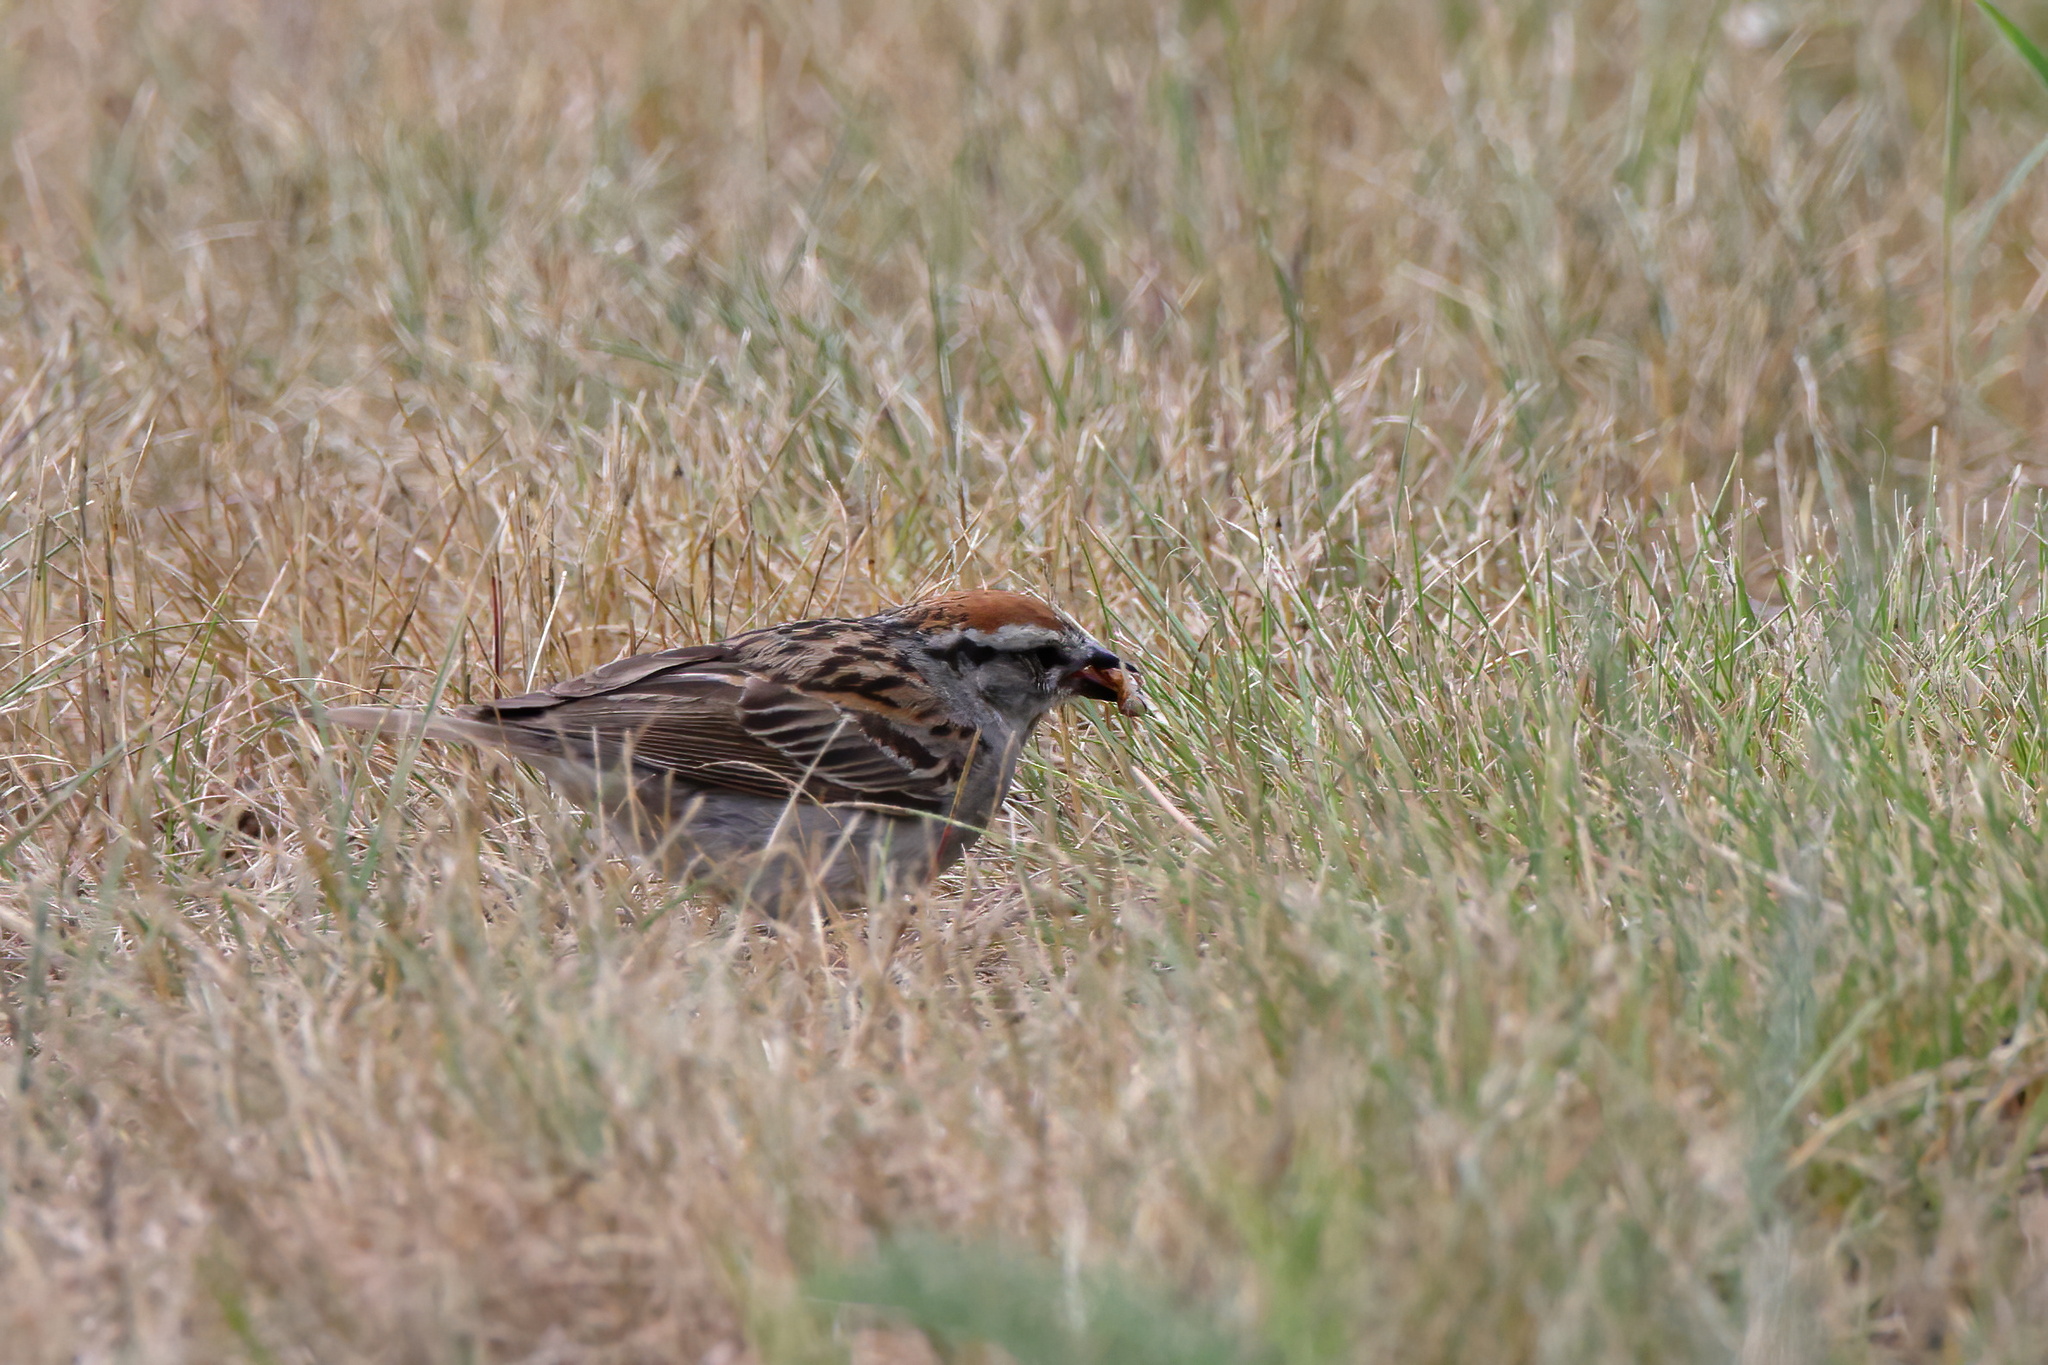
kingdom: Animalia
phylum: Chordata
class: Aves
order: Passeriformes
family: Passerellidae
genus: Spizella
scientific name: Spizella passerina
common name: Chipping sparrow
